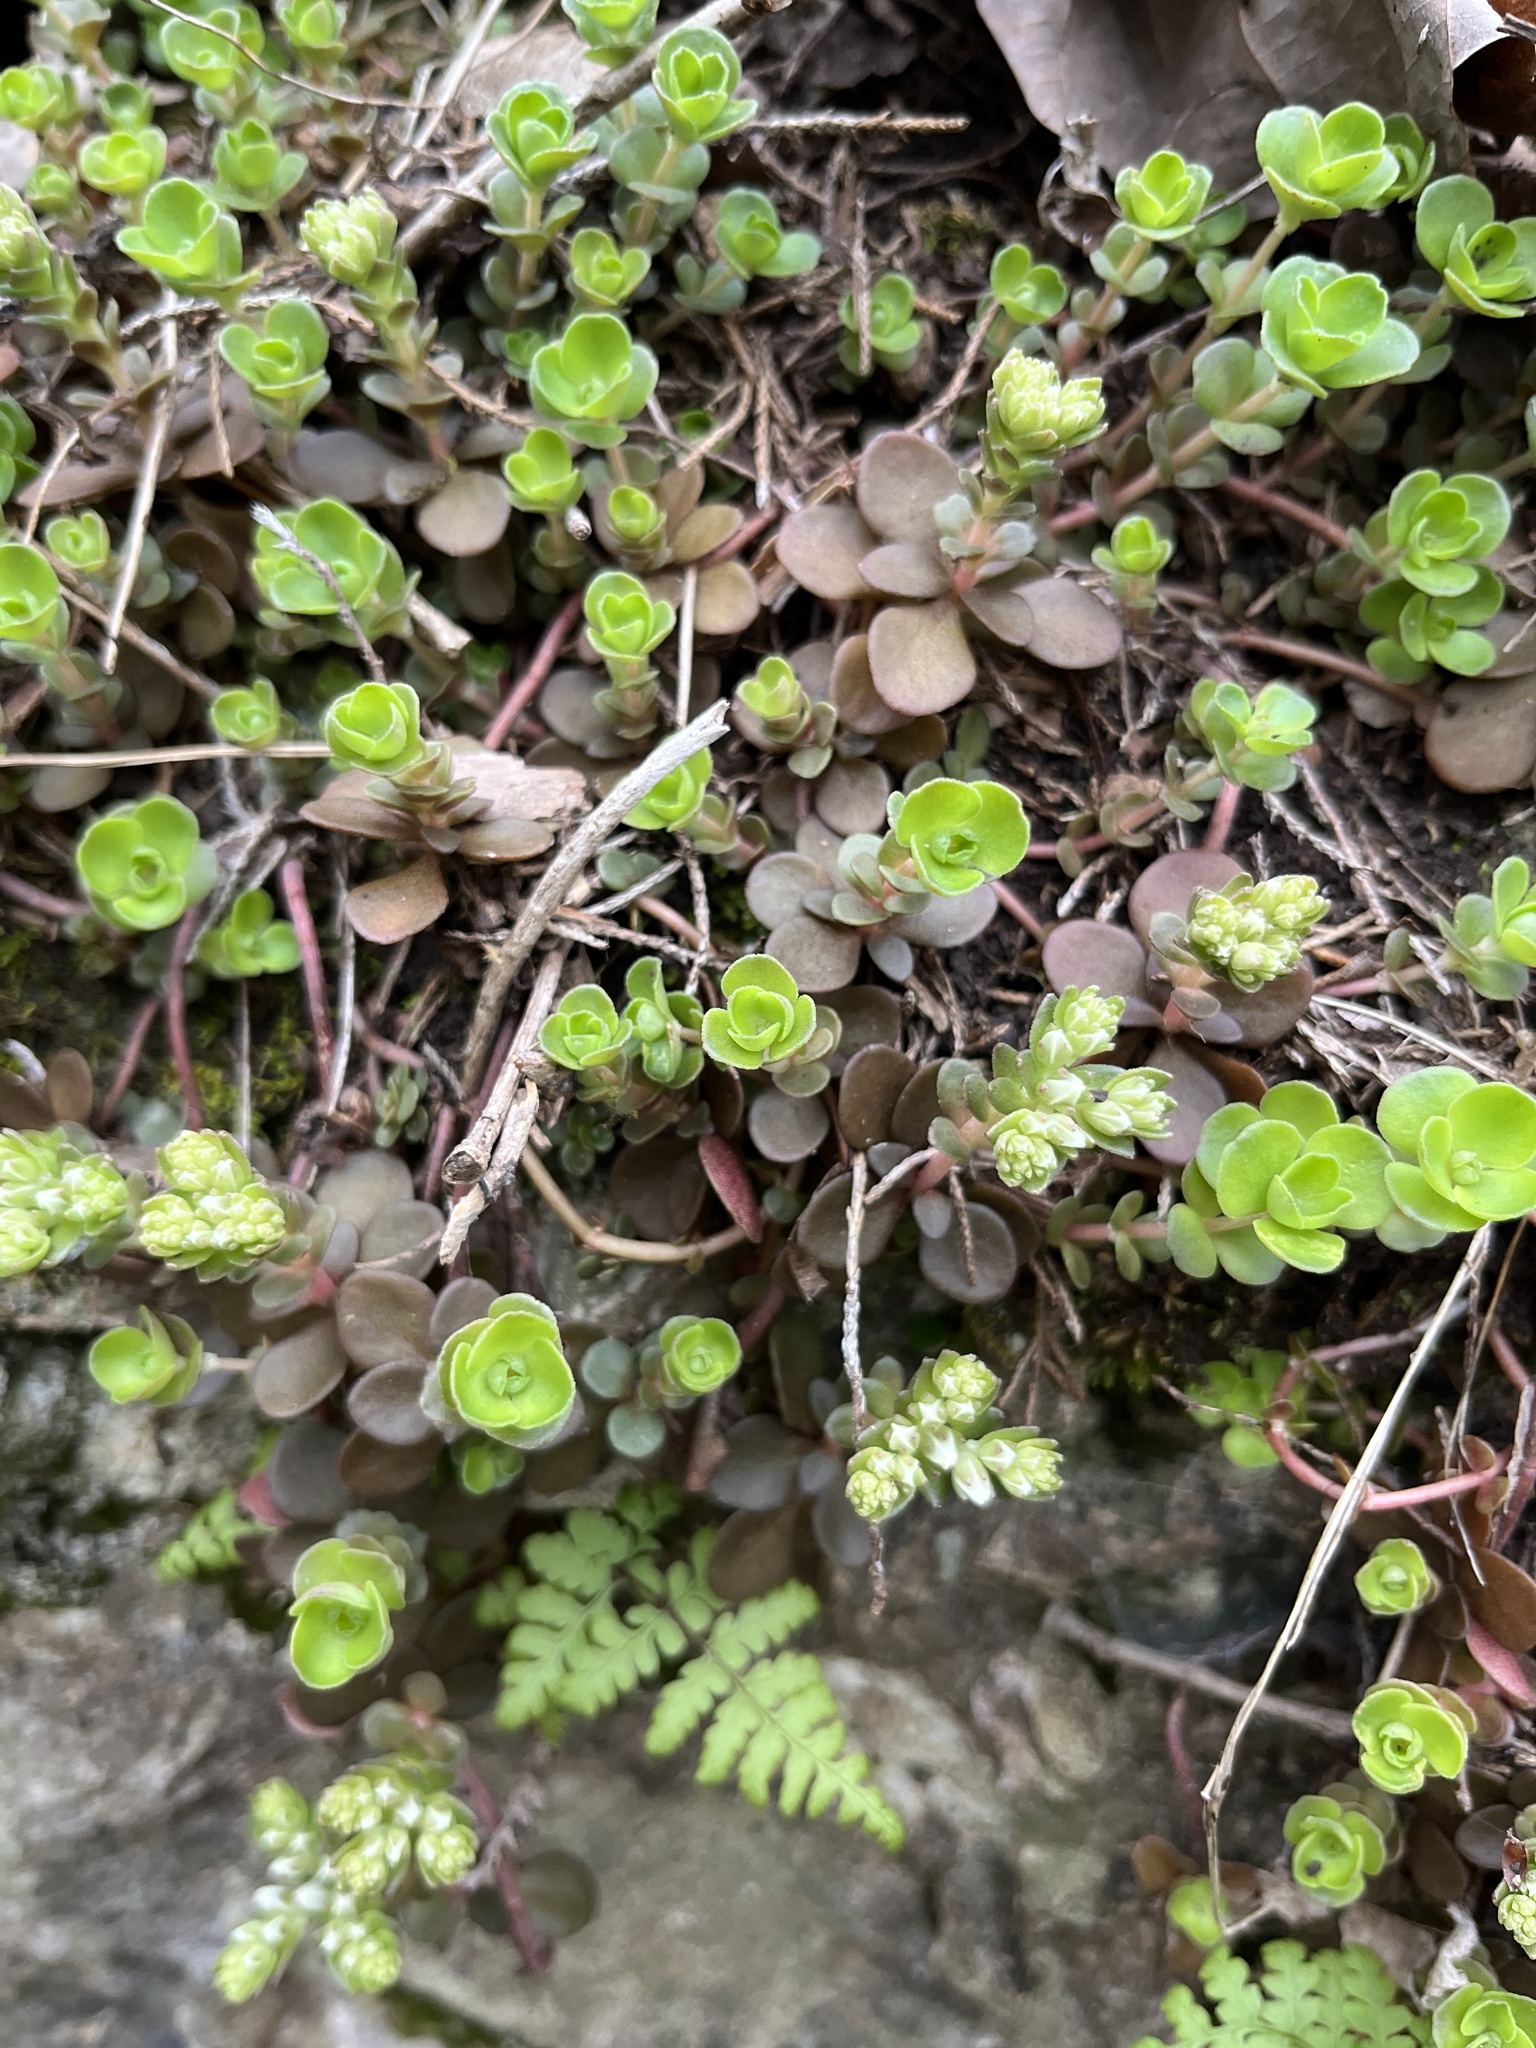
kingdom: Plantae
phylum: Tracheophyta
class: Magnoliopsida
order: Saxifragales
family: Crassulaceae
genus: Sedum
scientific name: Sedum ternatum
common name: Wild stonecrop
